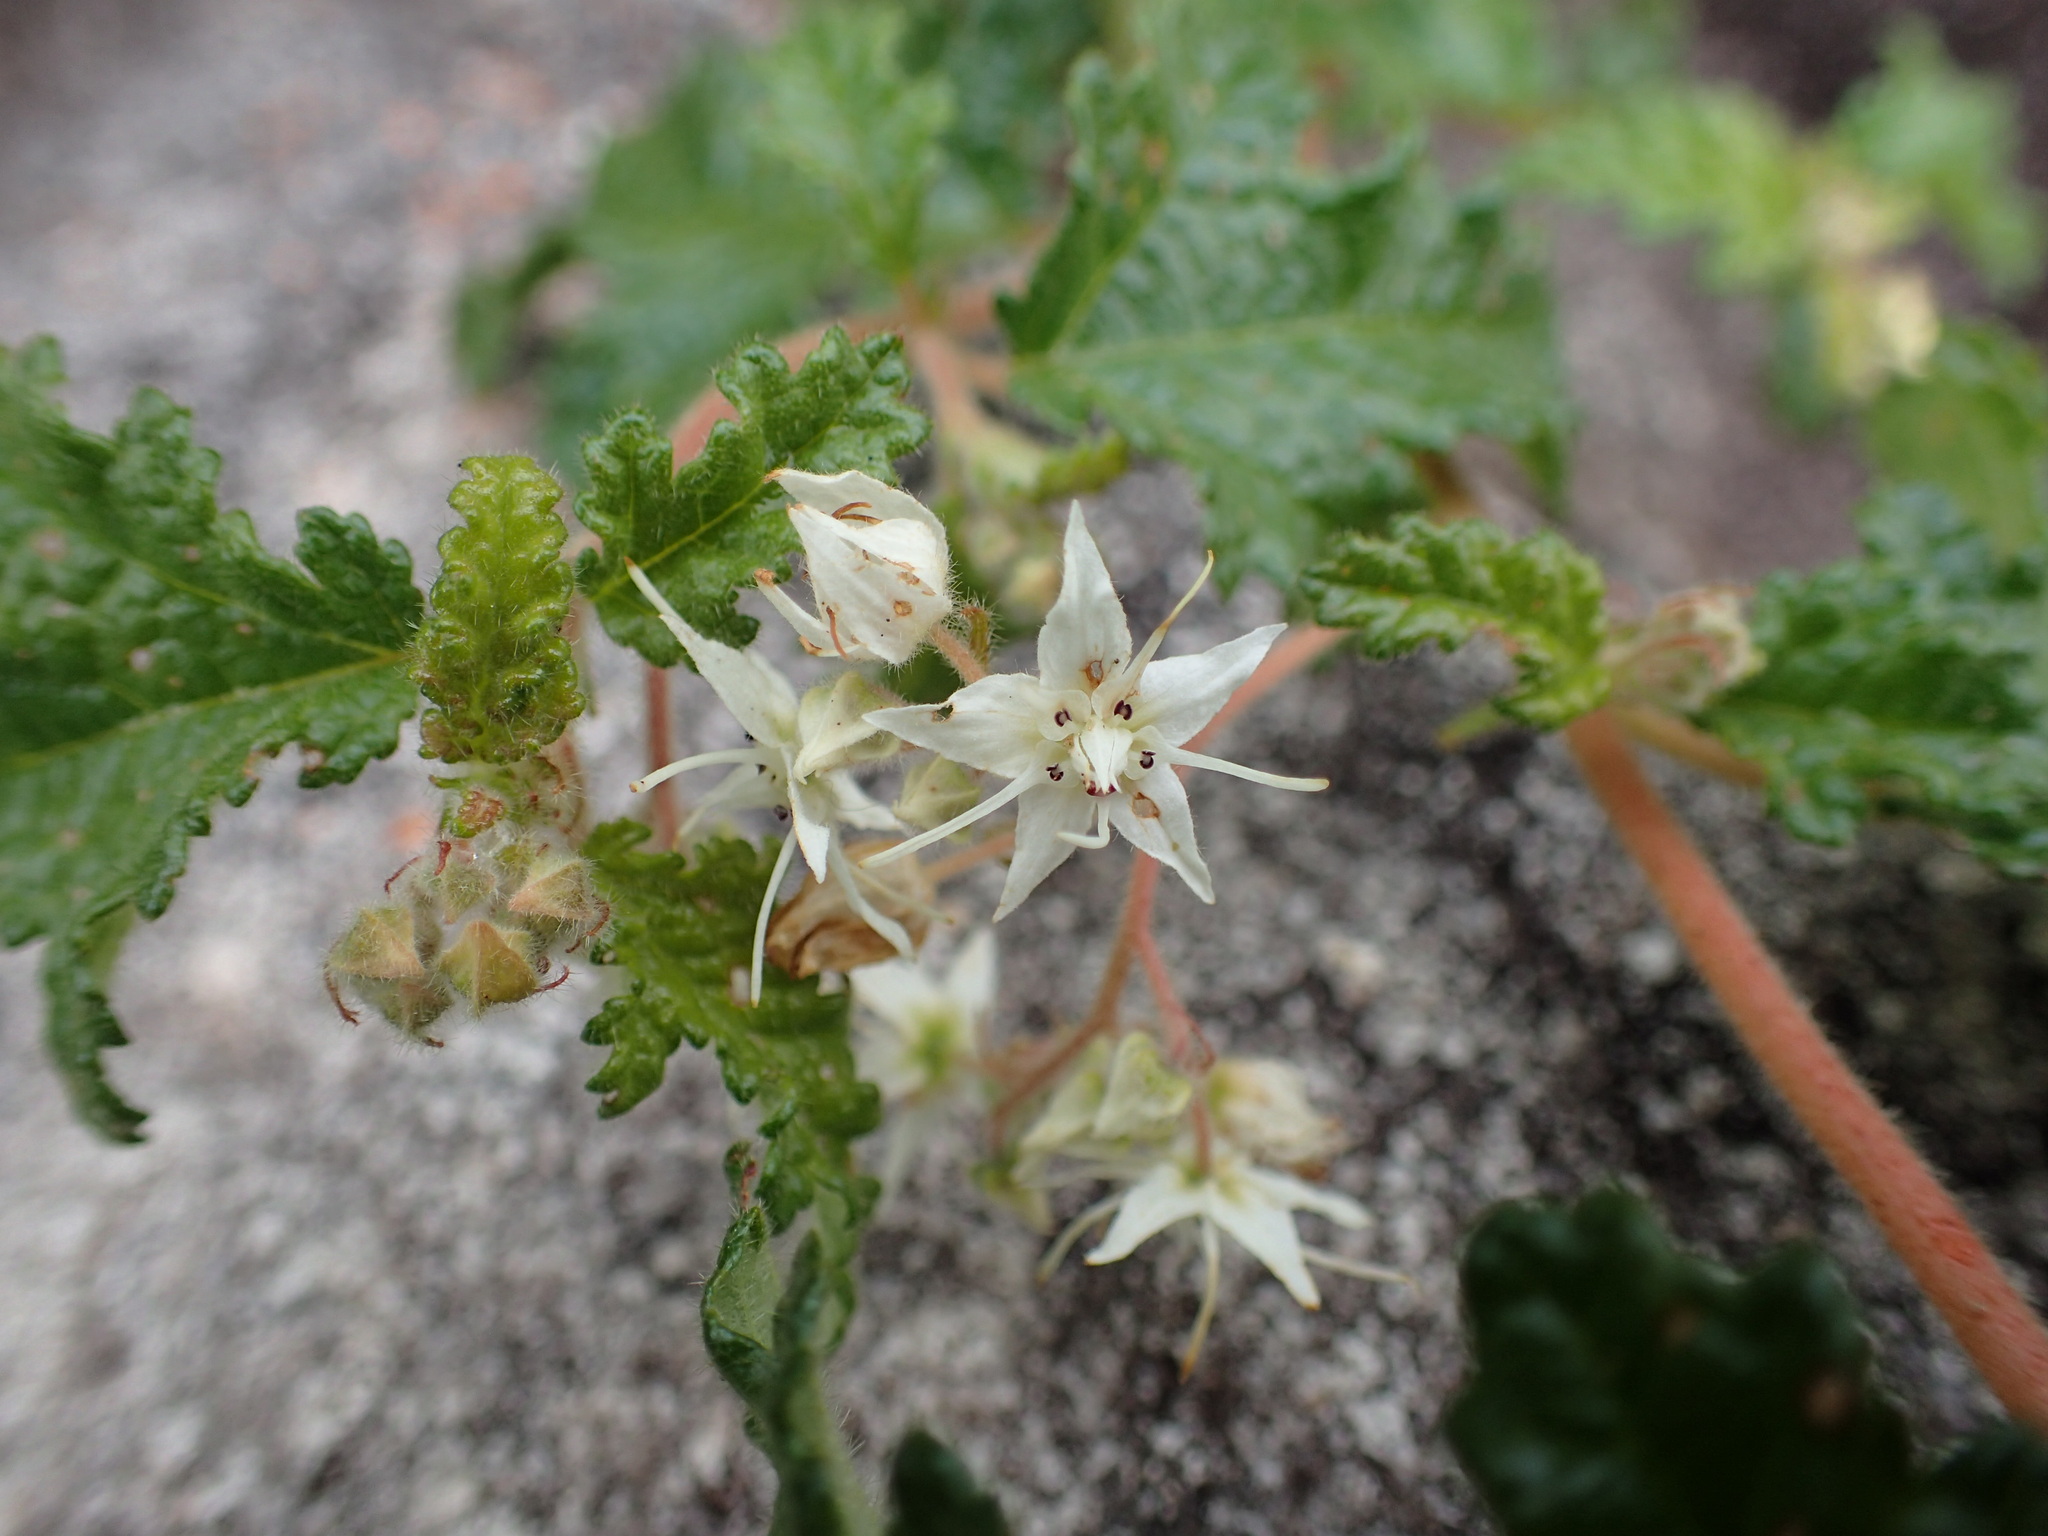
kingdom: Plantae
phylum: Tracheophyta
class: Magnoliopsida
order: Malvales
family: Malvaceae
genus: Commersonia
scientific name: Commersonia corniculata
